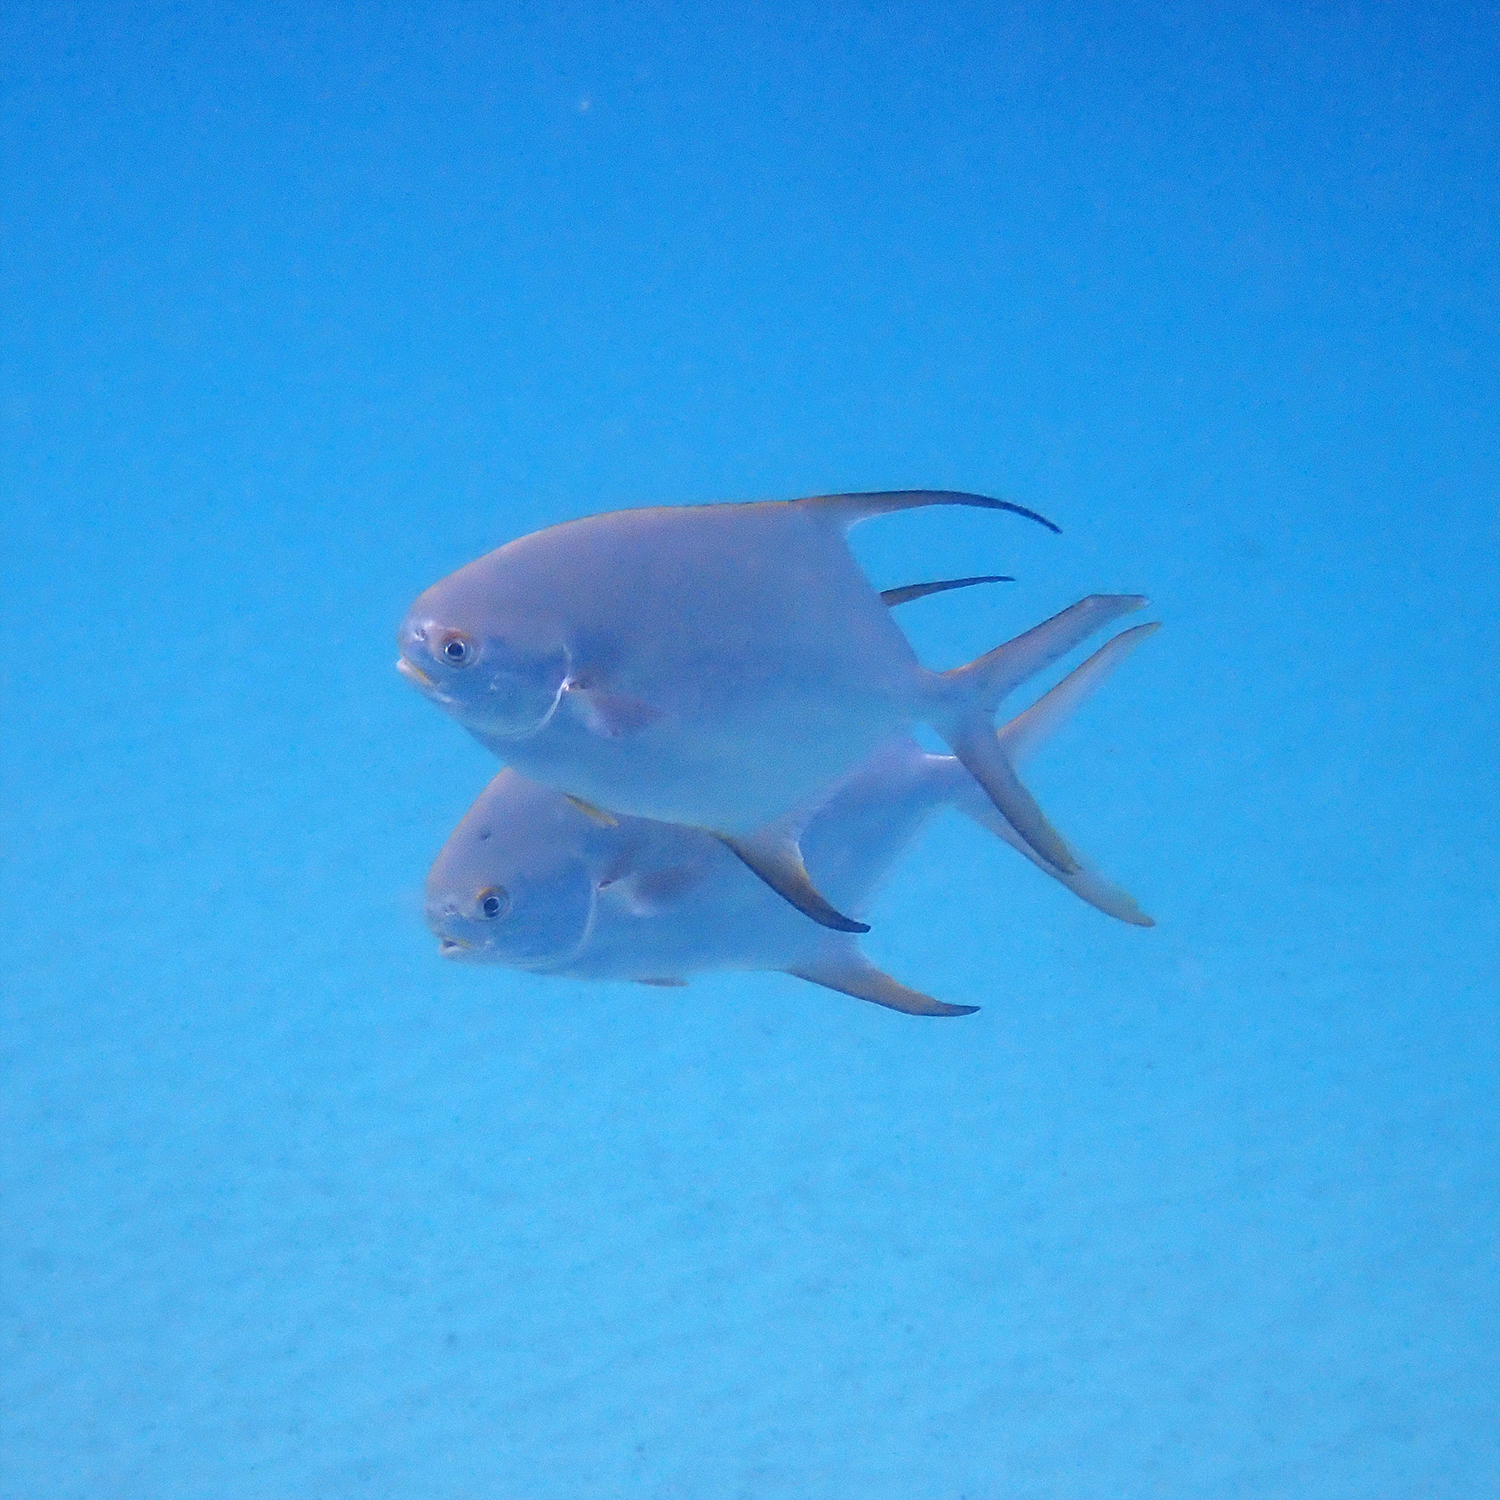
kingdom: Animalia
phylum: Chordata
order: Perciformes
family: Carangidae
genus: Trachinotus
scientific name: Trachinotus blochii
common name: Snubnose pompano
